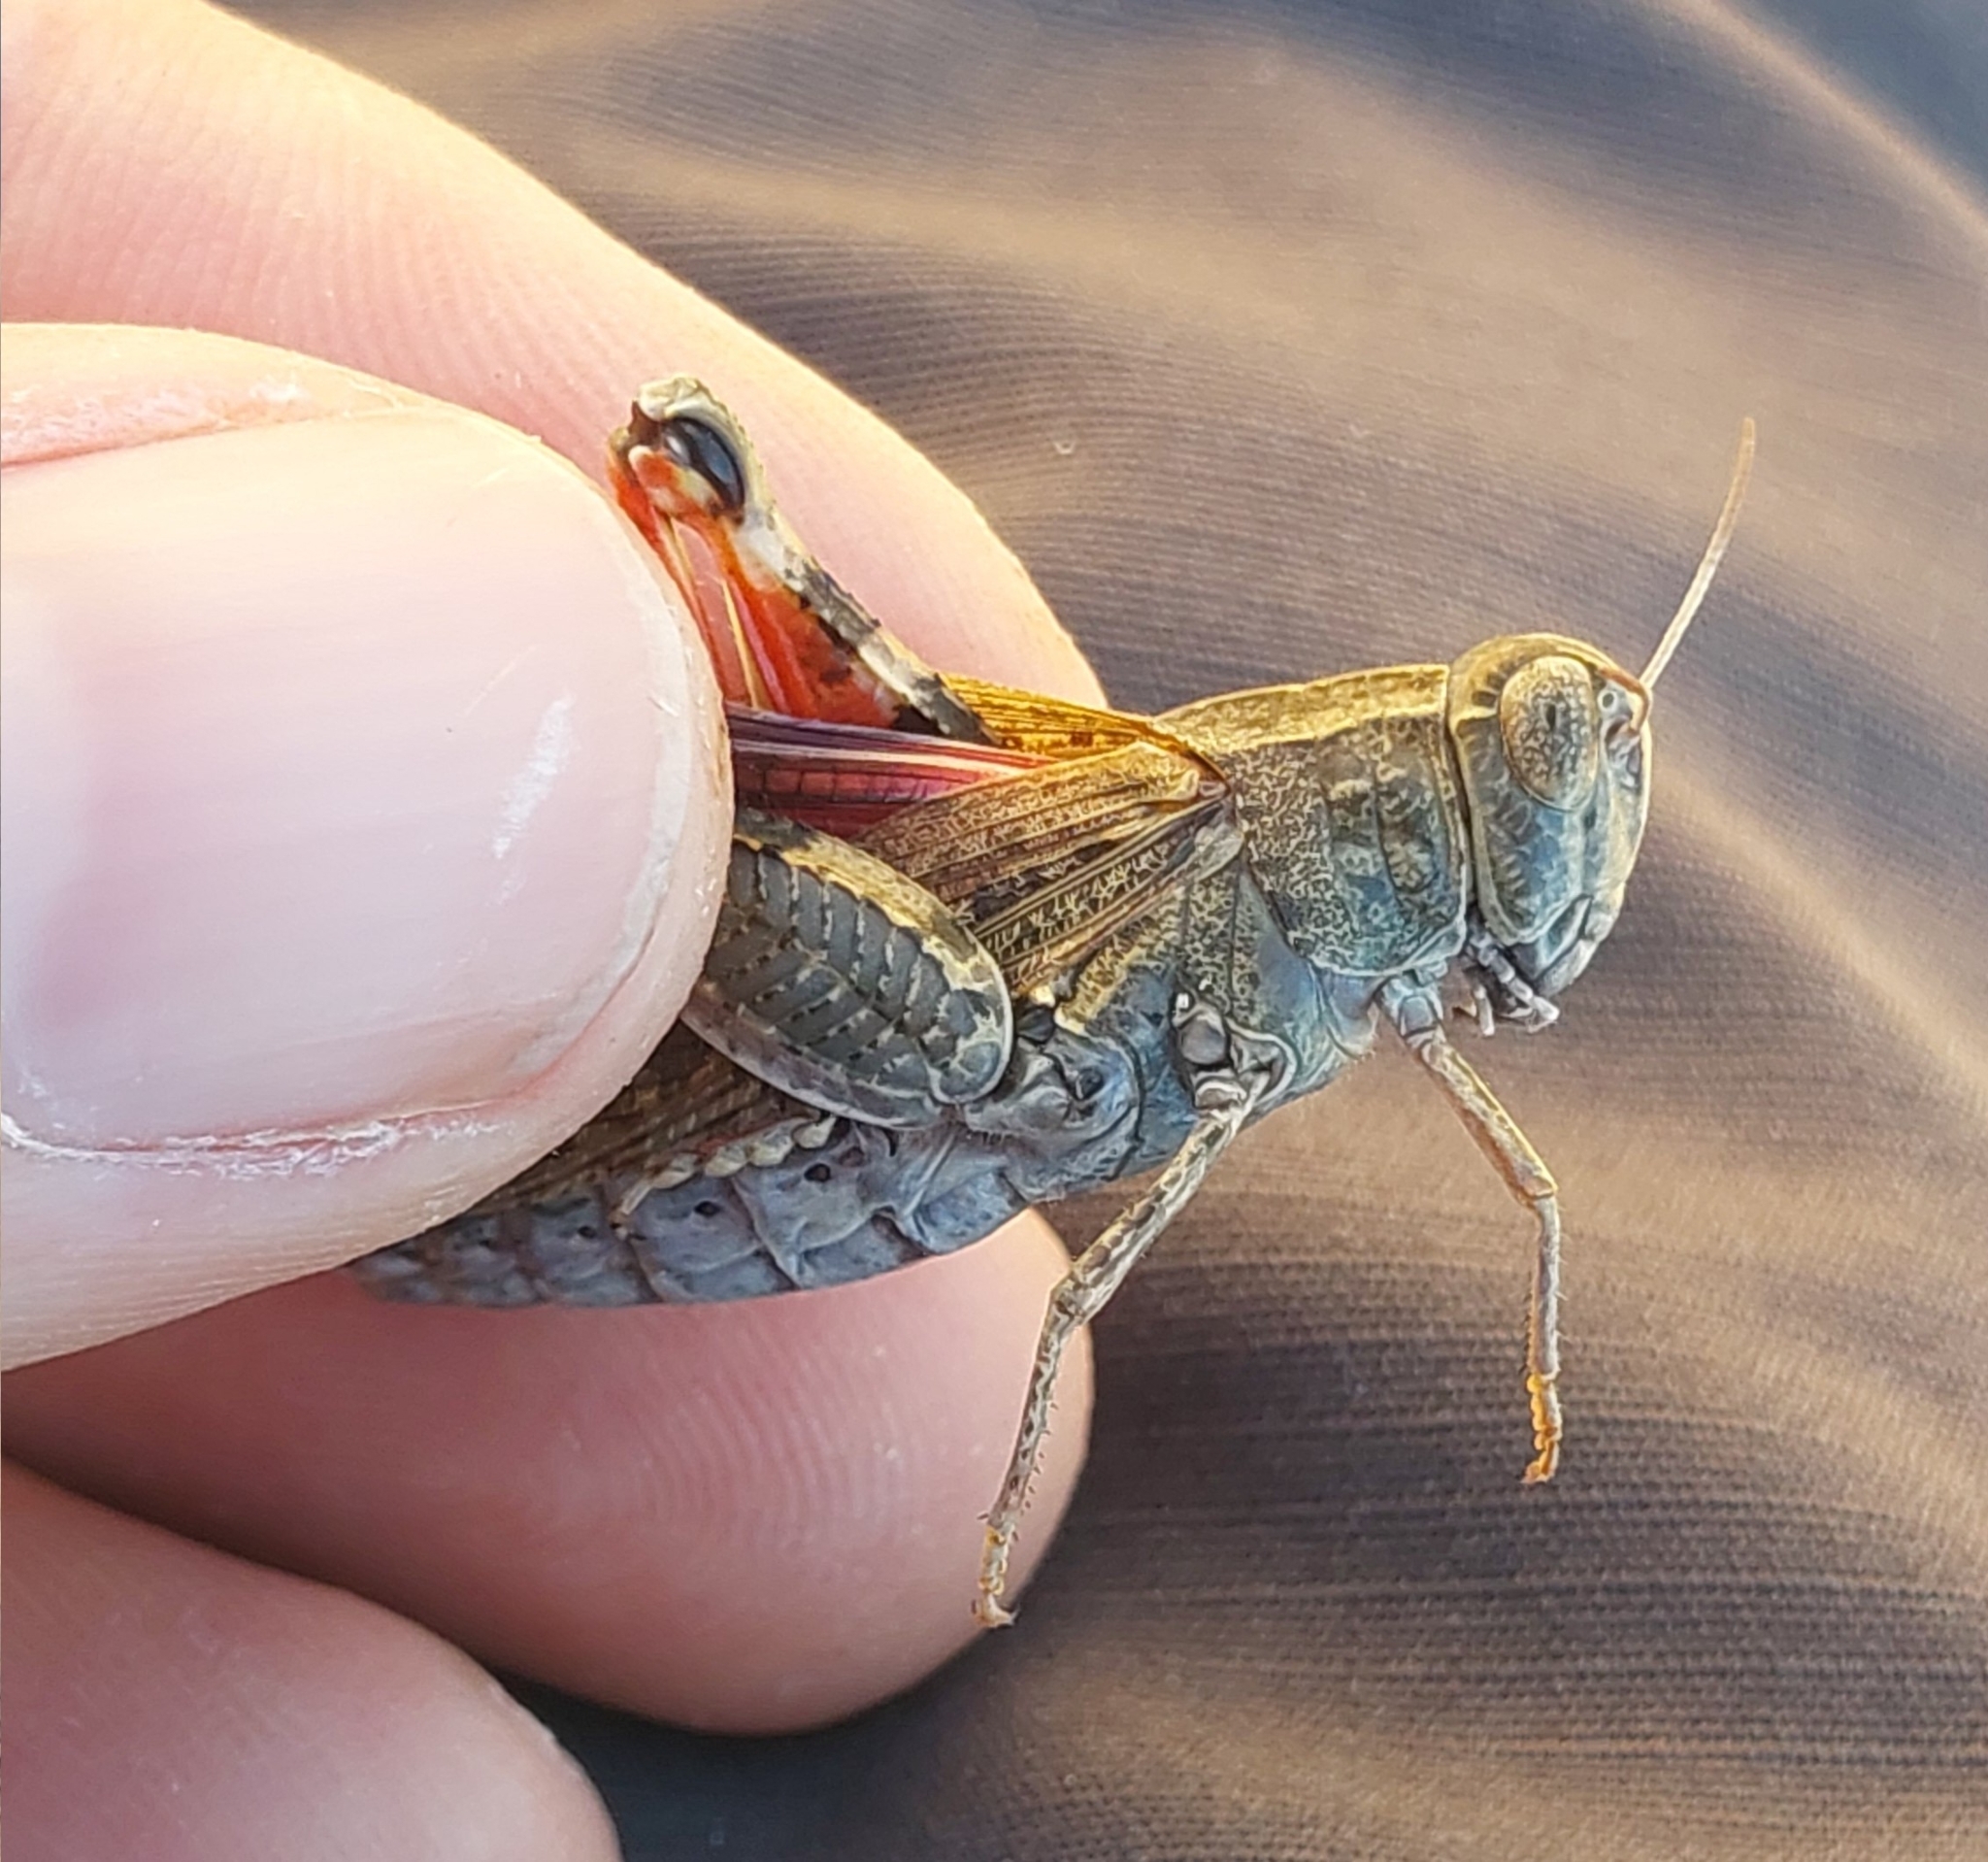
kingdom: Animalia
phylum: Arthropoda
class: Insecta
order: Orthoptera
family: Acrididae
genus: Calliptamus
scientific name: Calliptamus barbarus
